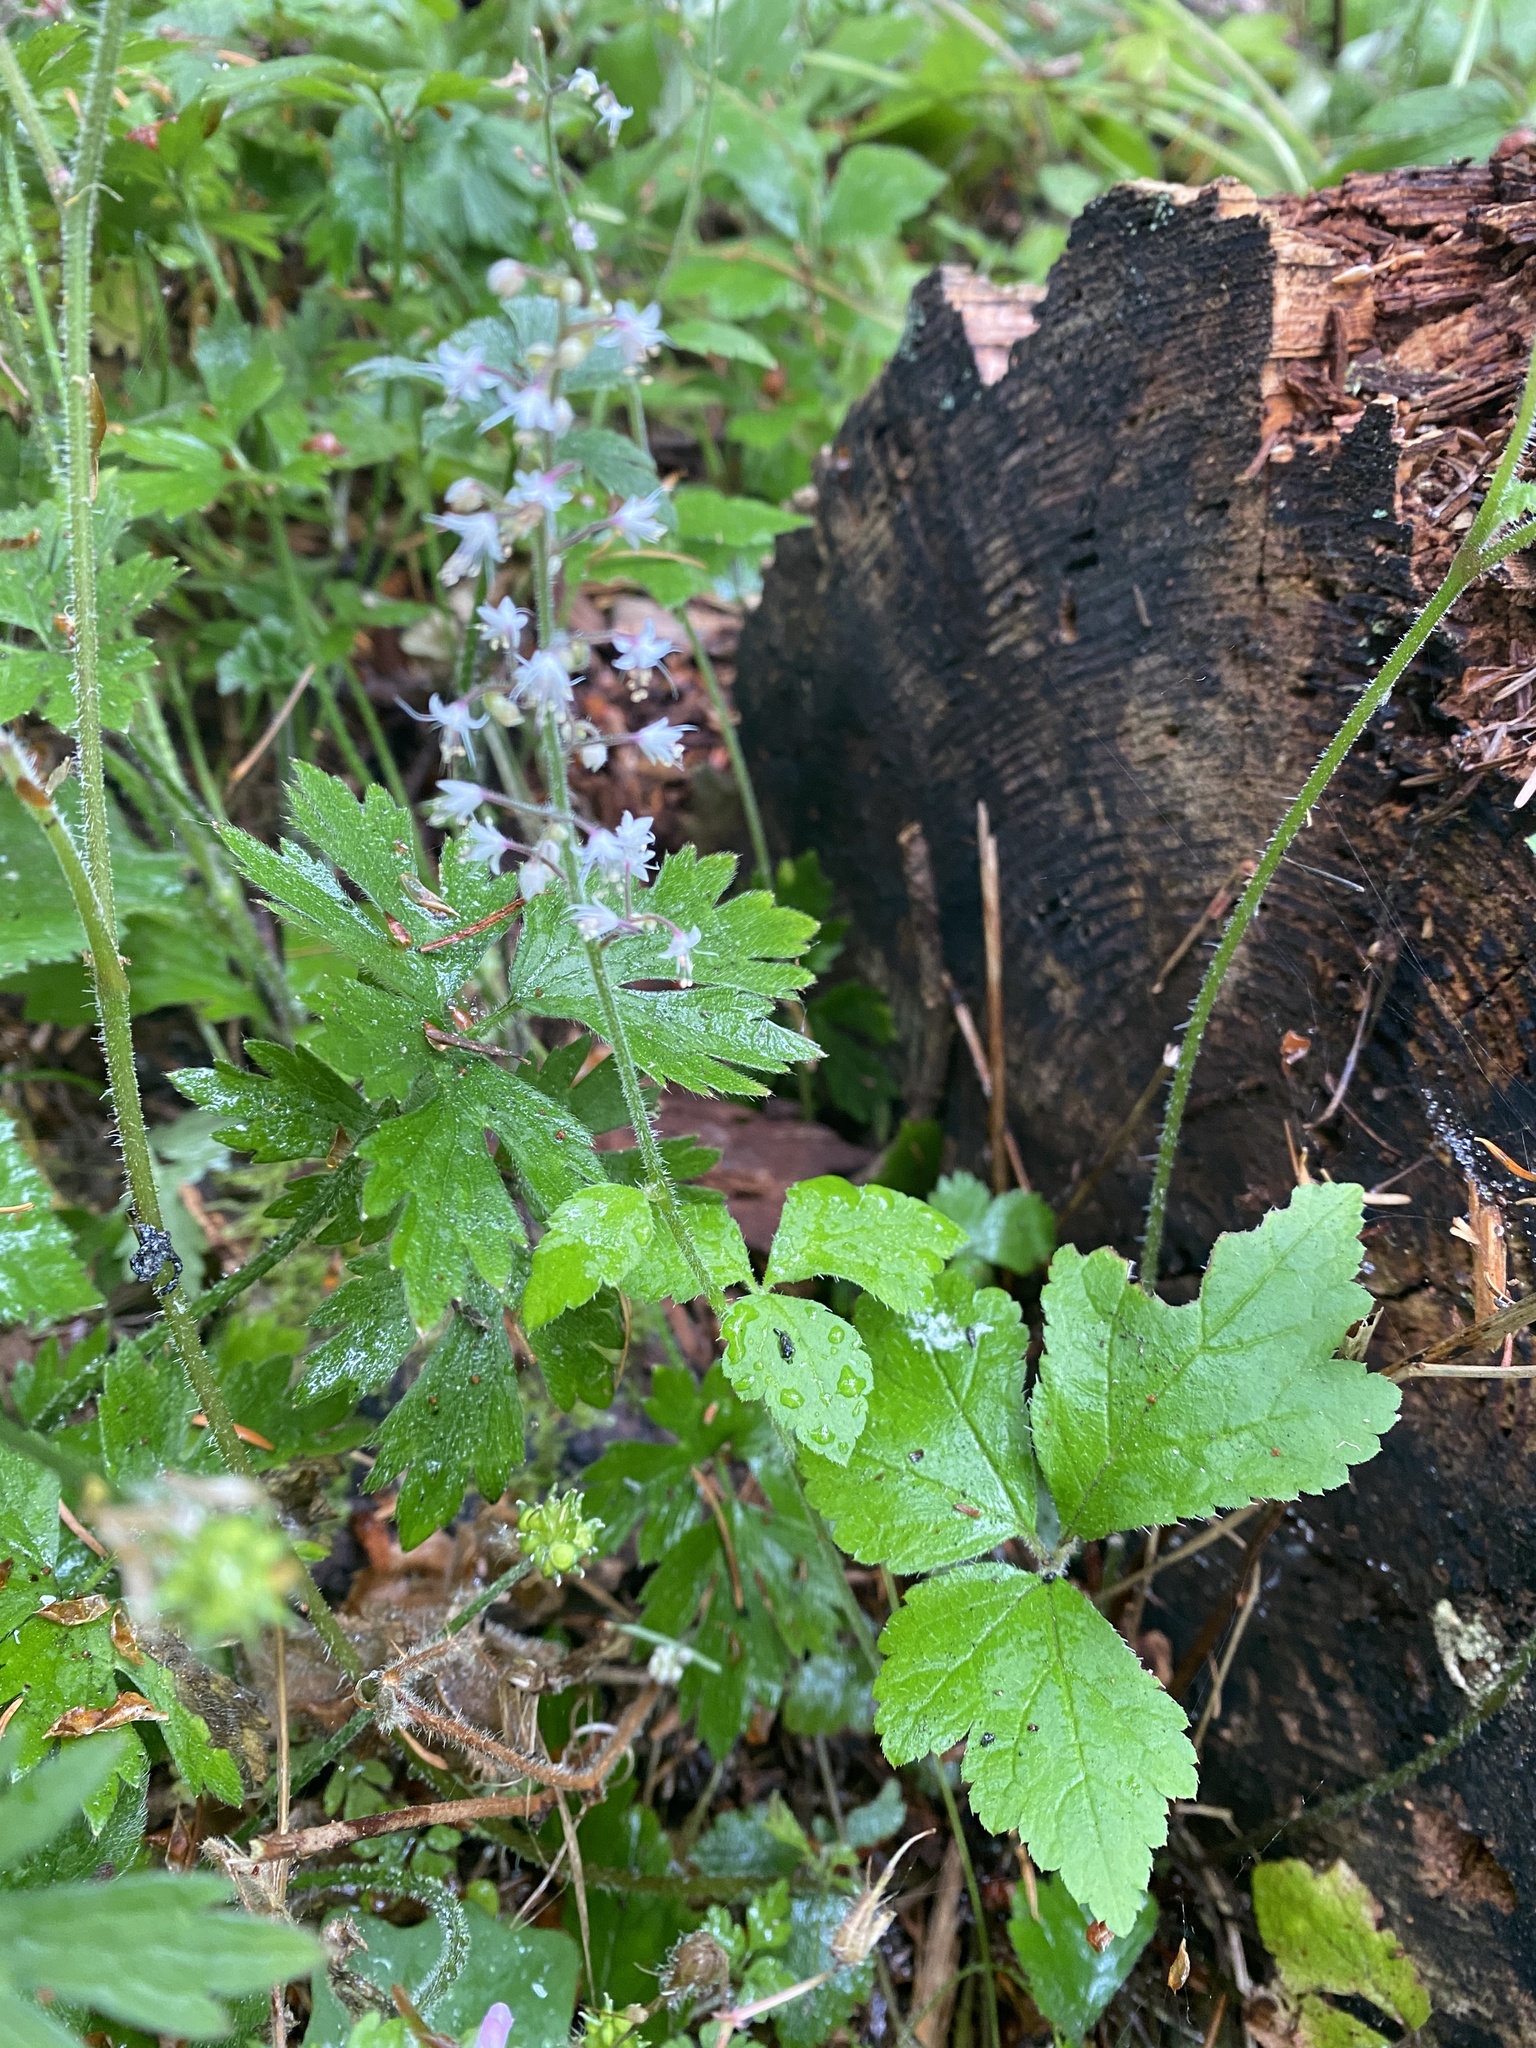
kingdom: Plantae
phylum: Tracheophyta
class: Magnoliopsida
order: Saxifragales
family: Saxifragaceae
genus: Tiarella
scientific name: Tiarella trifoliata
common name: Sugar-scoop
